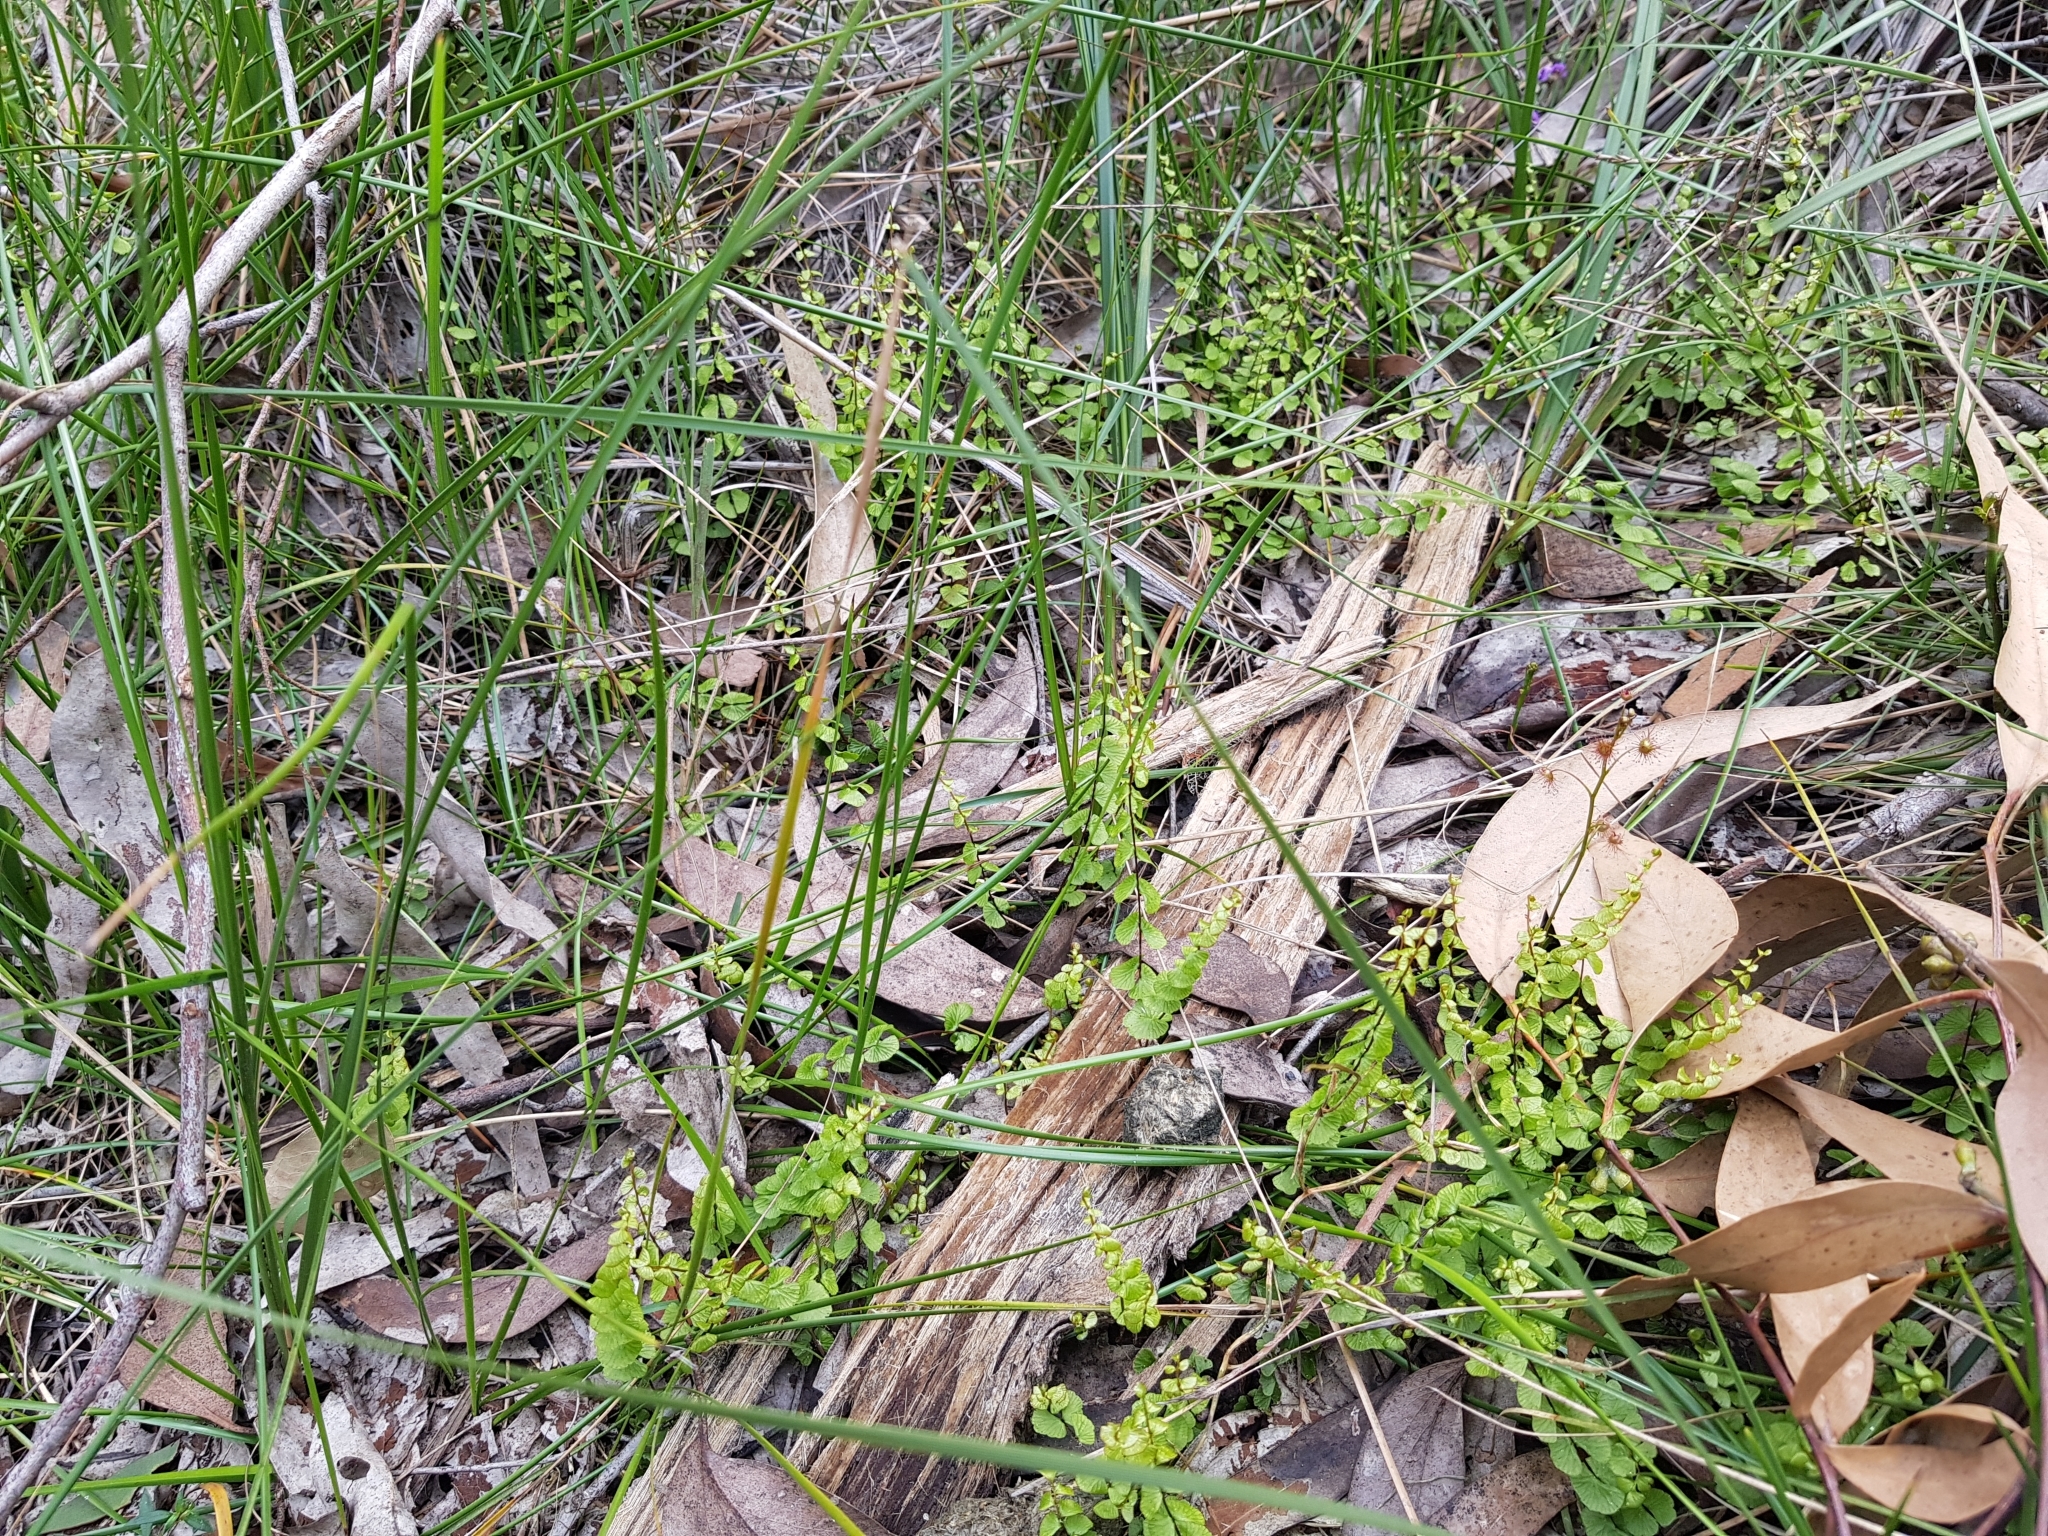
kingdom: Plantae
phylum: Tracheophyta
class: Polypodiopsida
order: Polypodiales
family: Lindsaeaceae
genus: Lindsaea
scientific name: Lindsaea linearis
